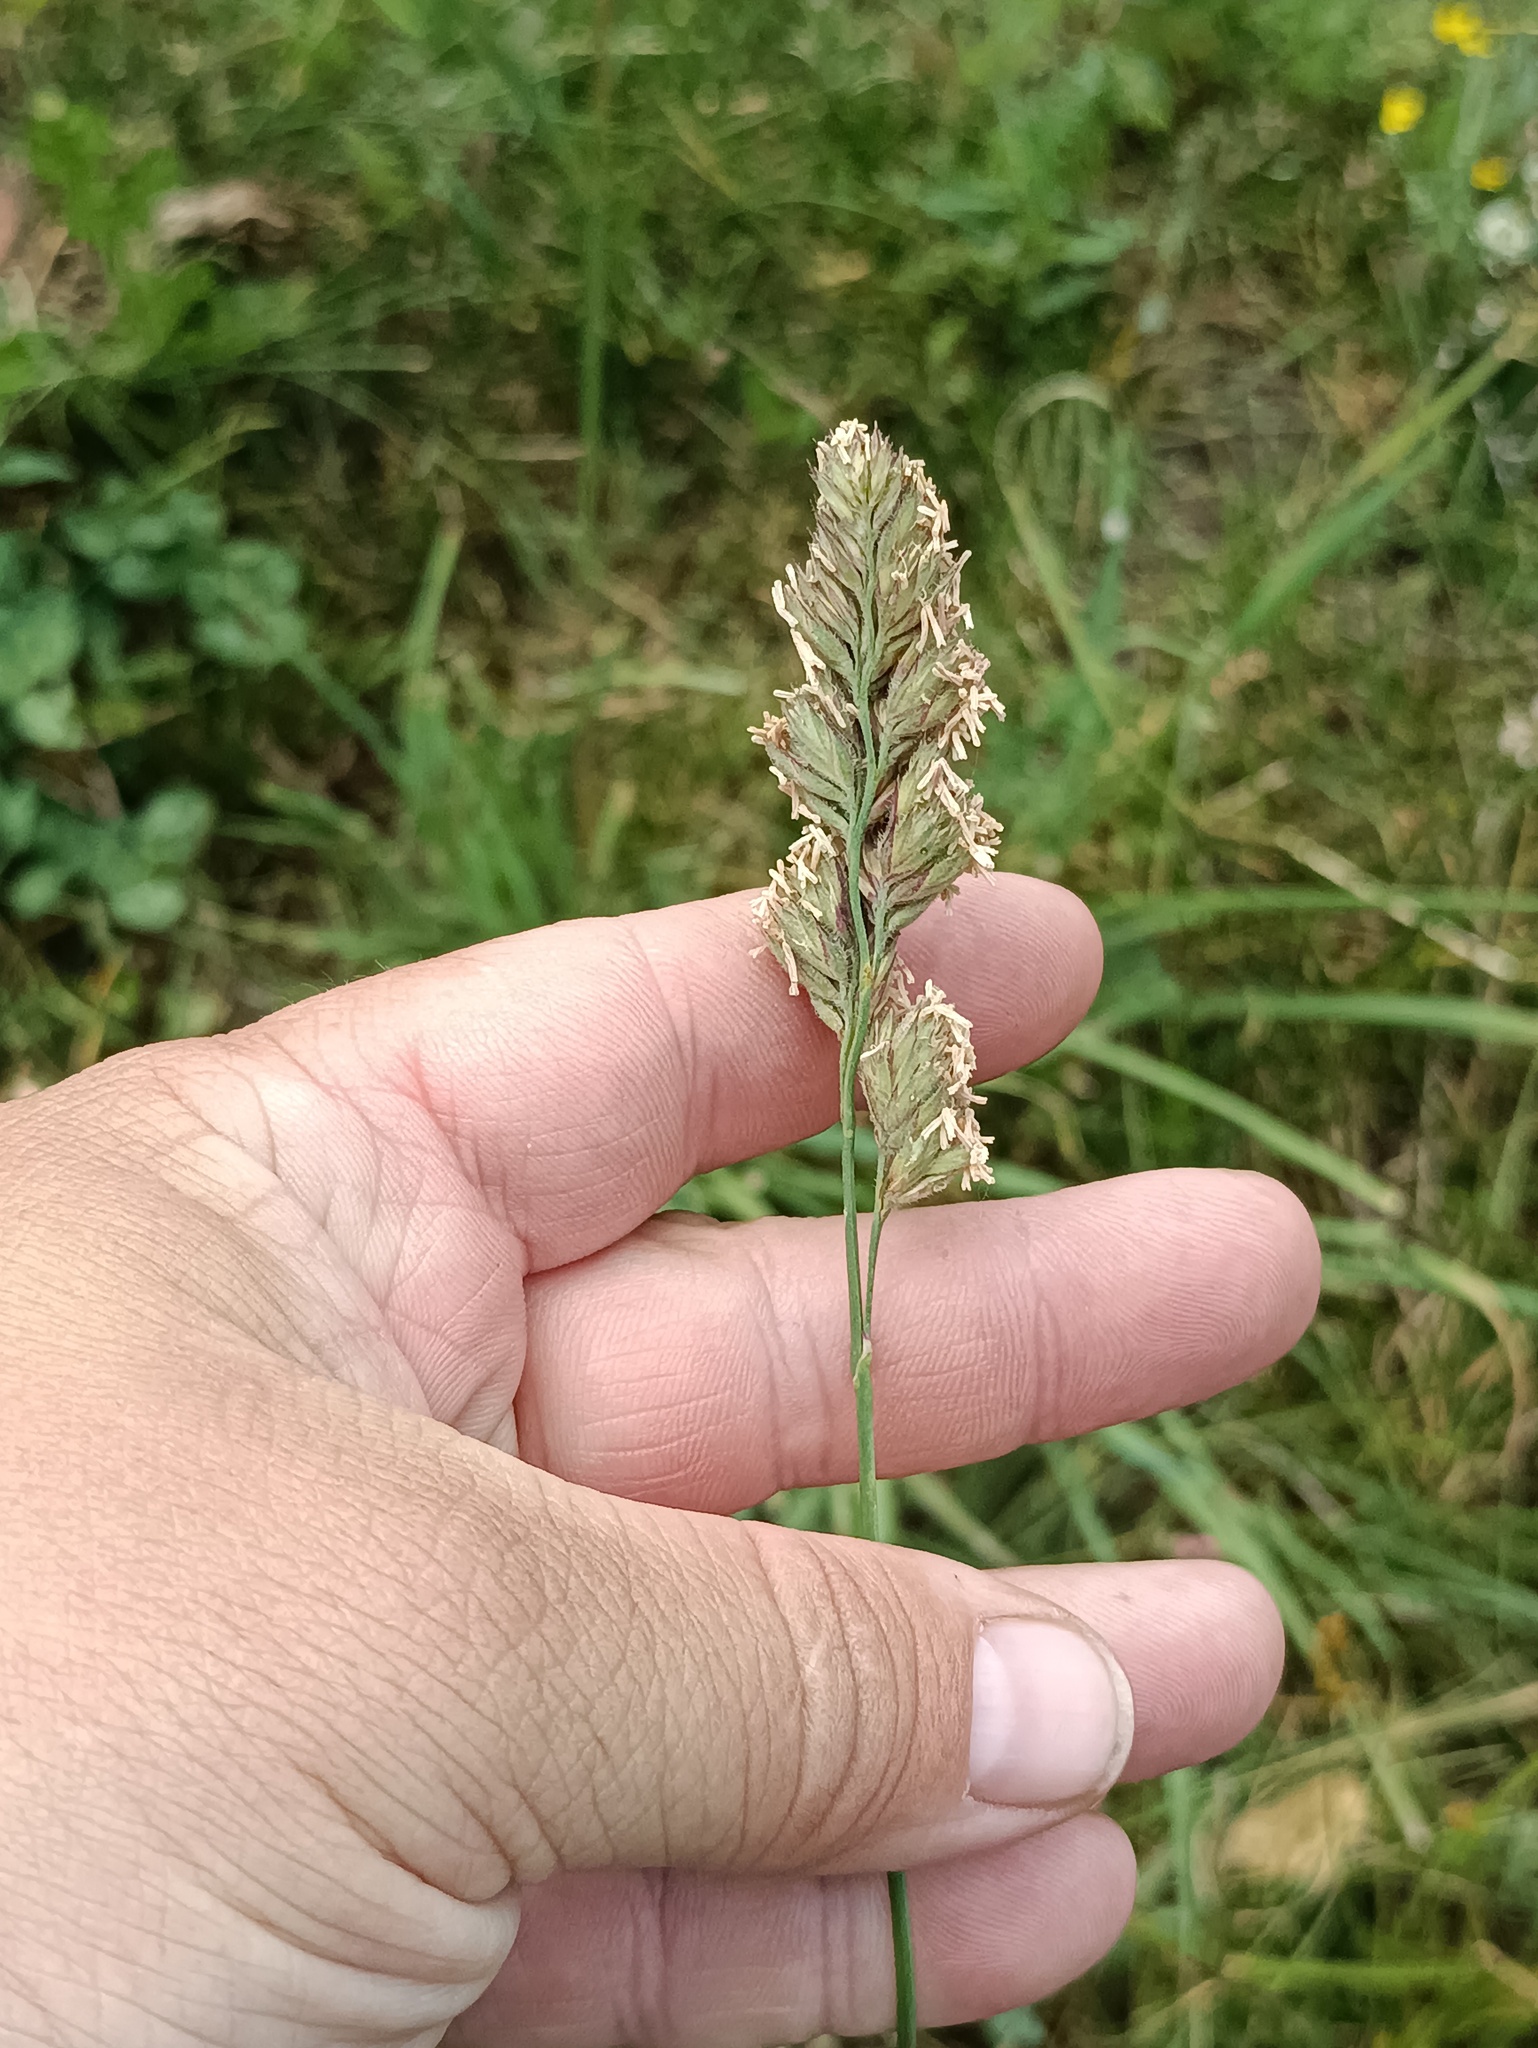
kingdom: Plantae
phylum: Tracheophyta
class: Liliopsida
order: Poales
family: Poaceae
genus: Dactylis
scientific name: Dactylis glomerata
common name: Orchardgrass
